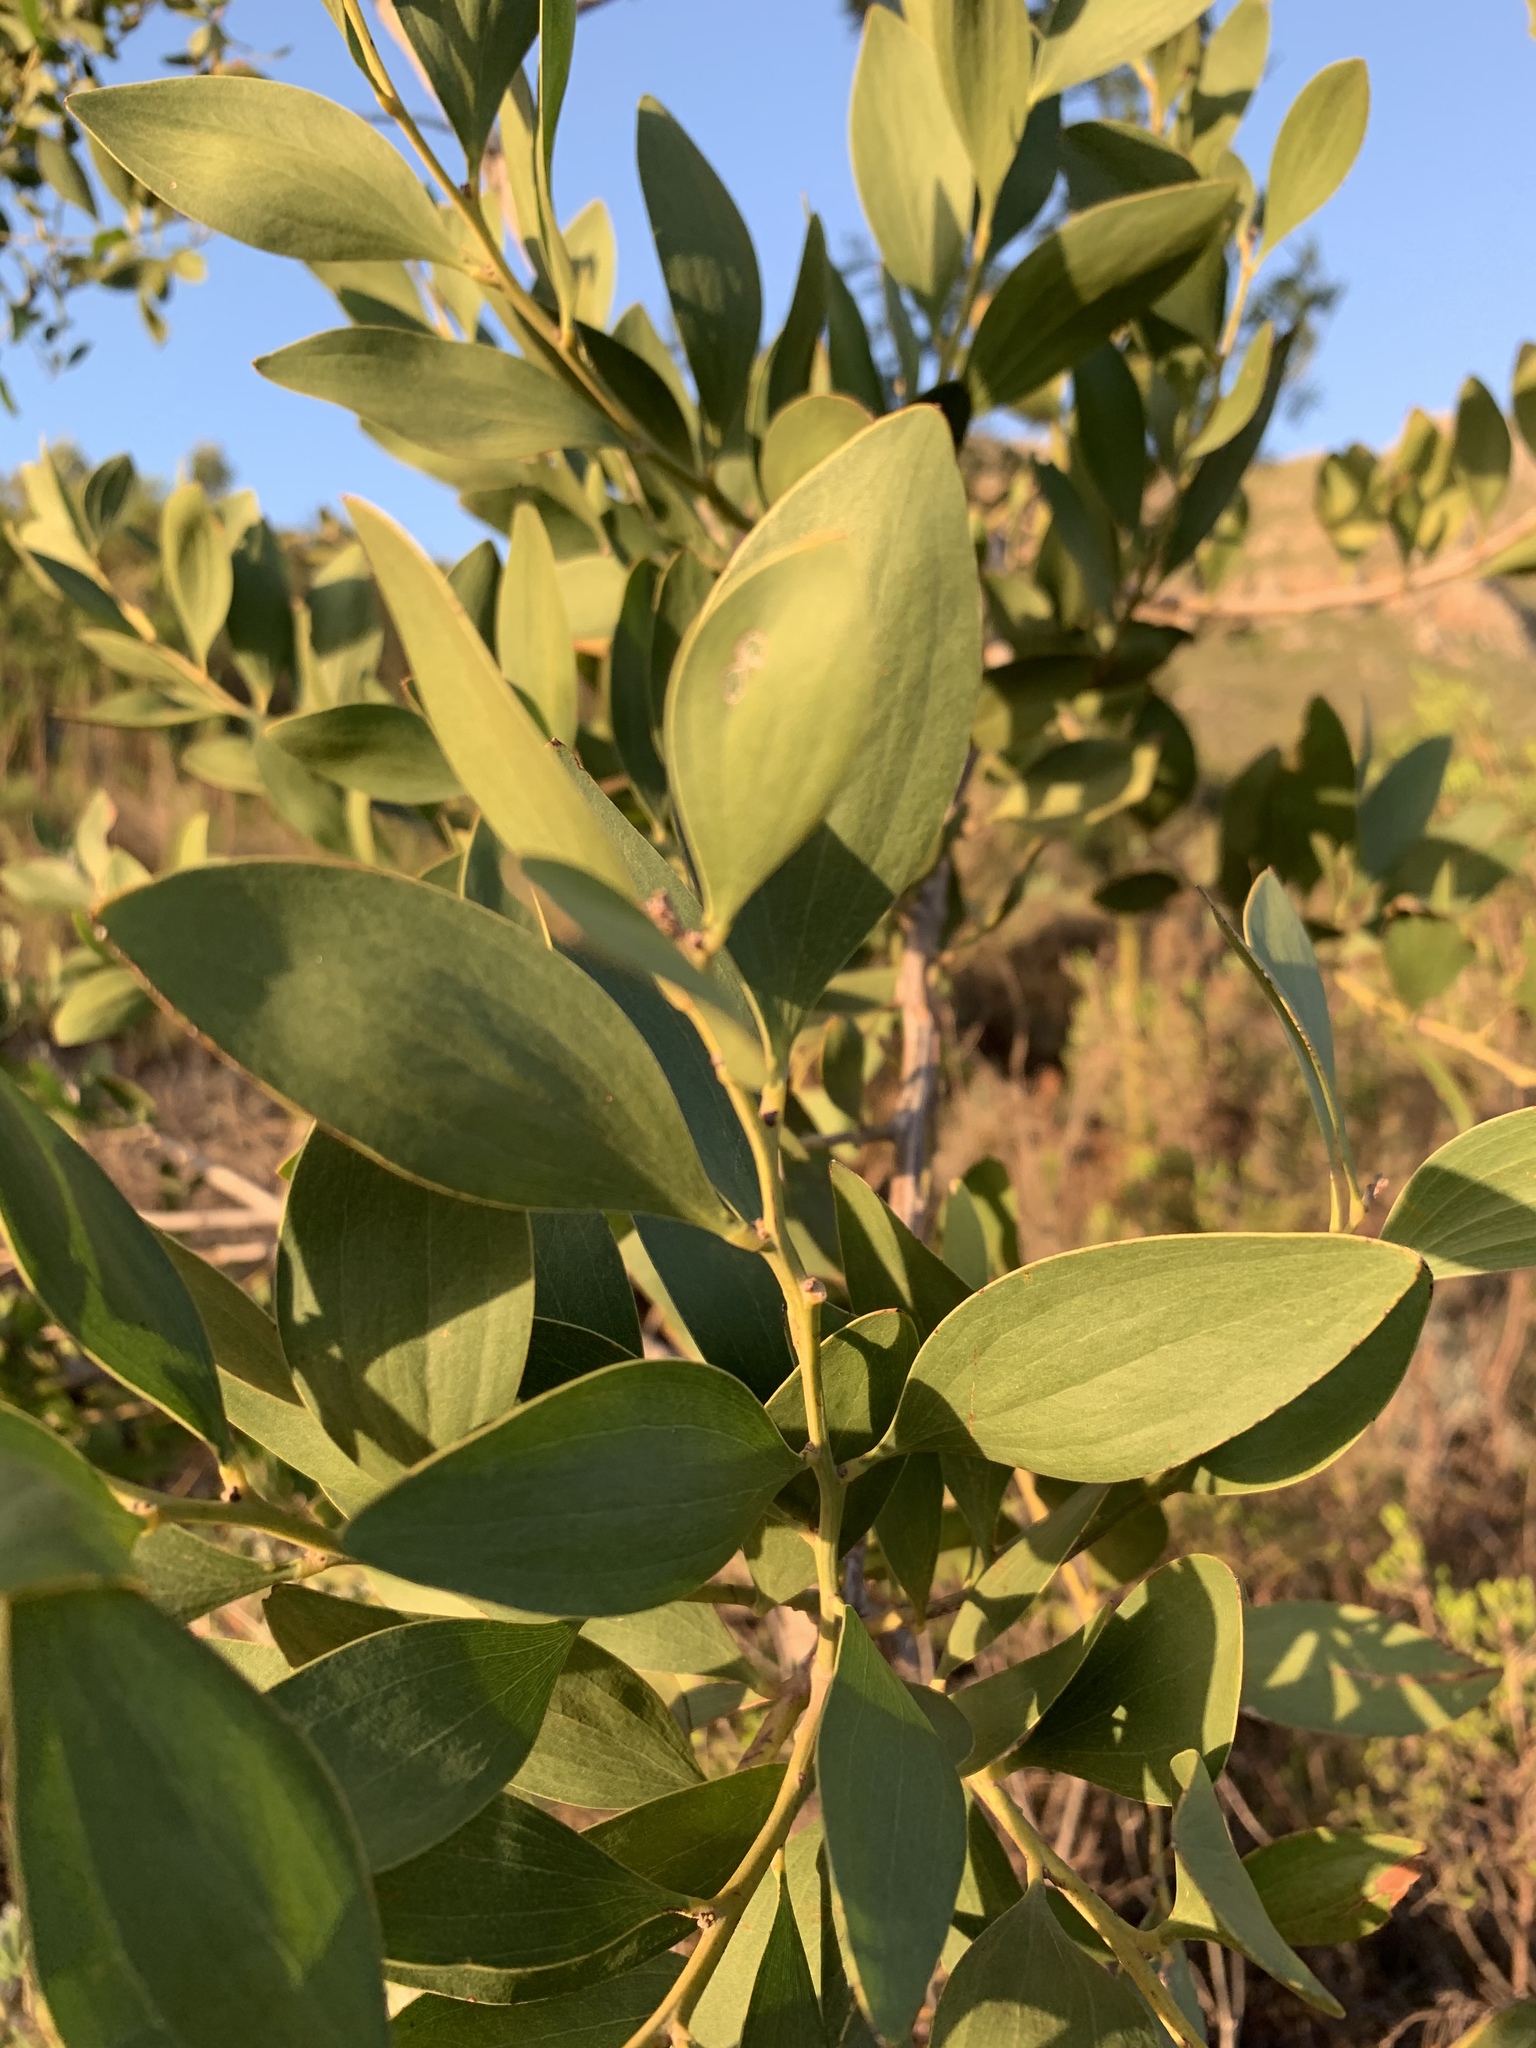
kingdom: Plantae
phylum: Tracheophyta
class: Magnoliopsida
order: Fabales
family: Fabaceae
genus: Acacia
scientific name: Acacia melanoxylon
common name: Blackwood
